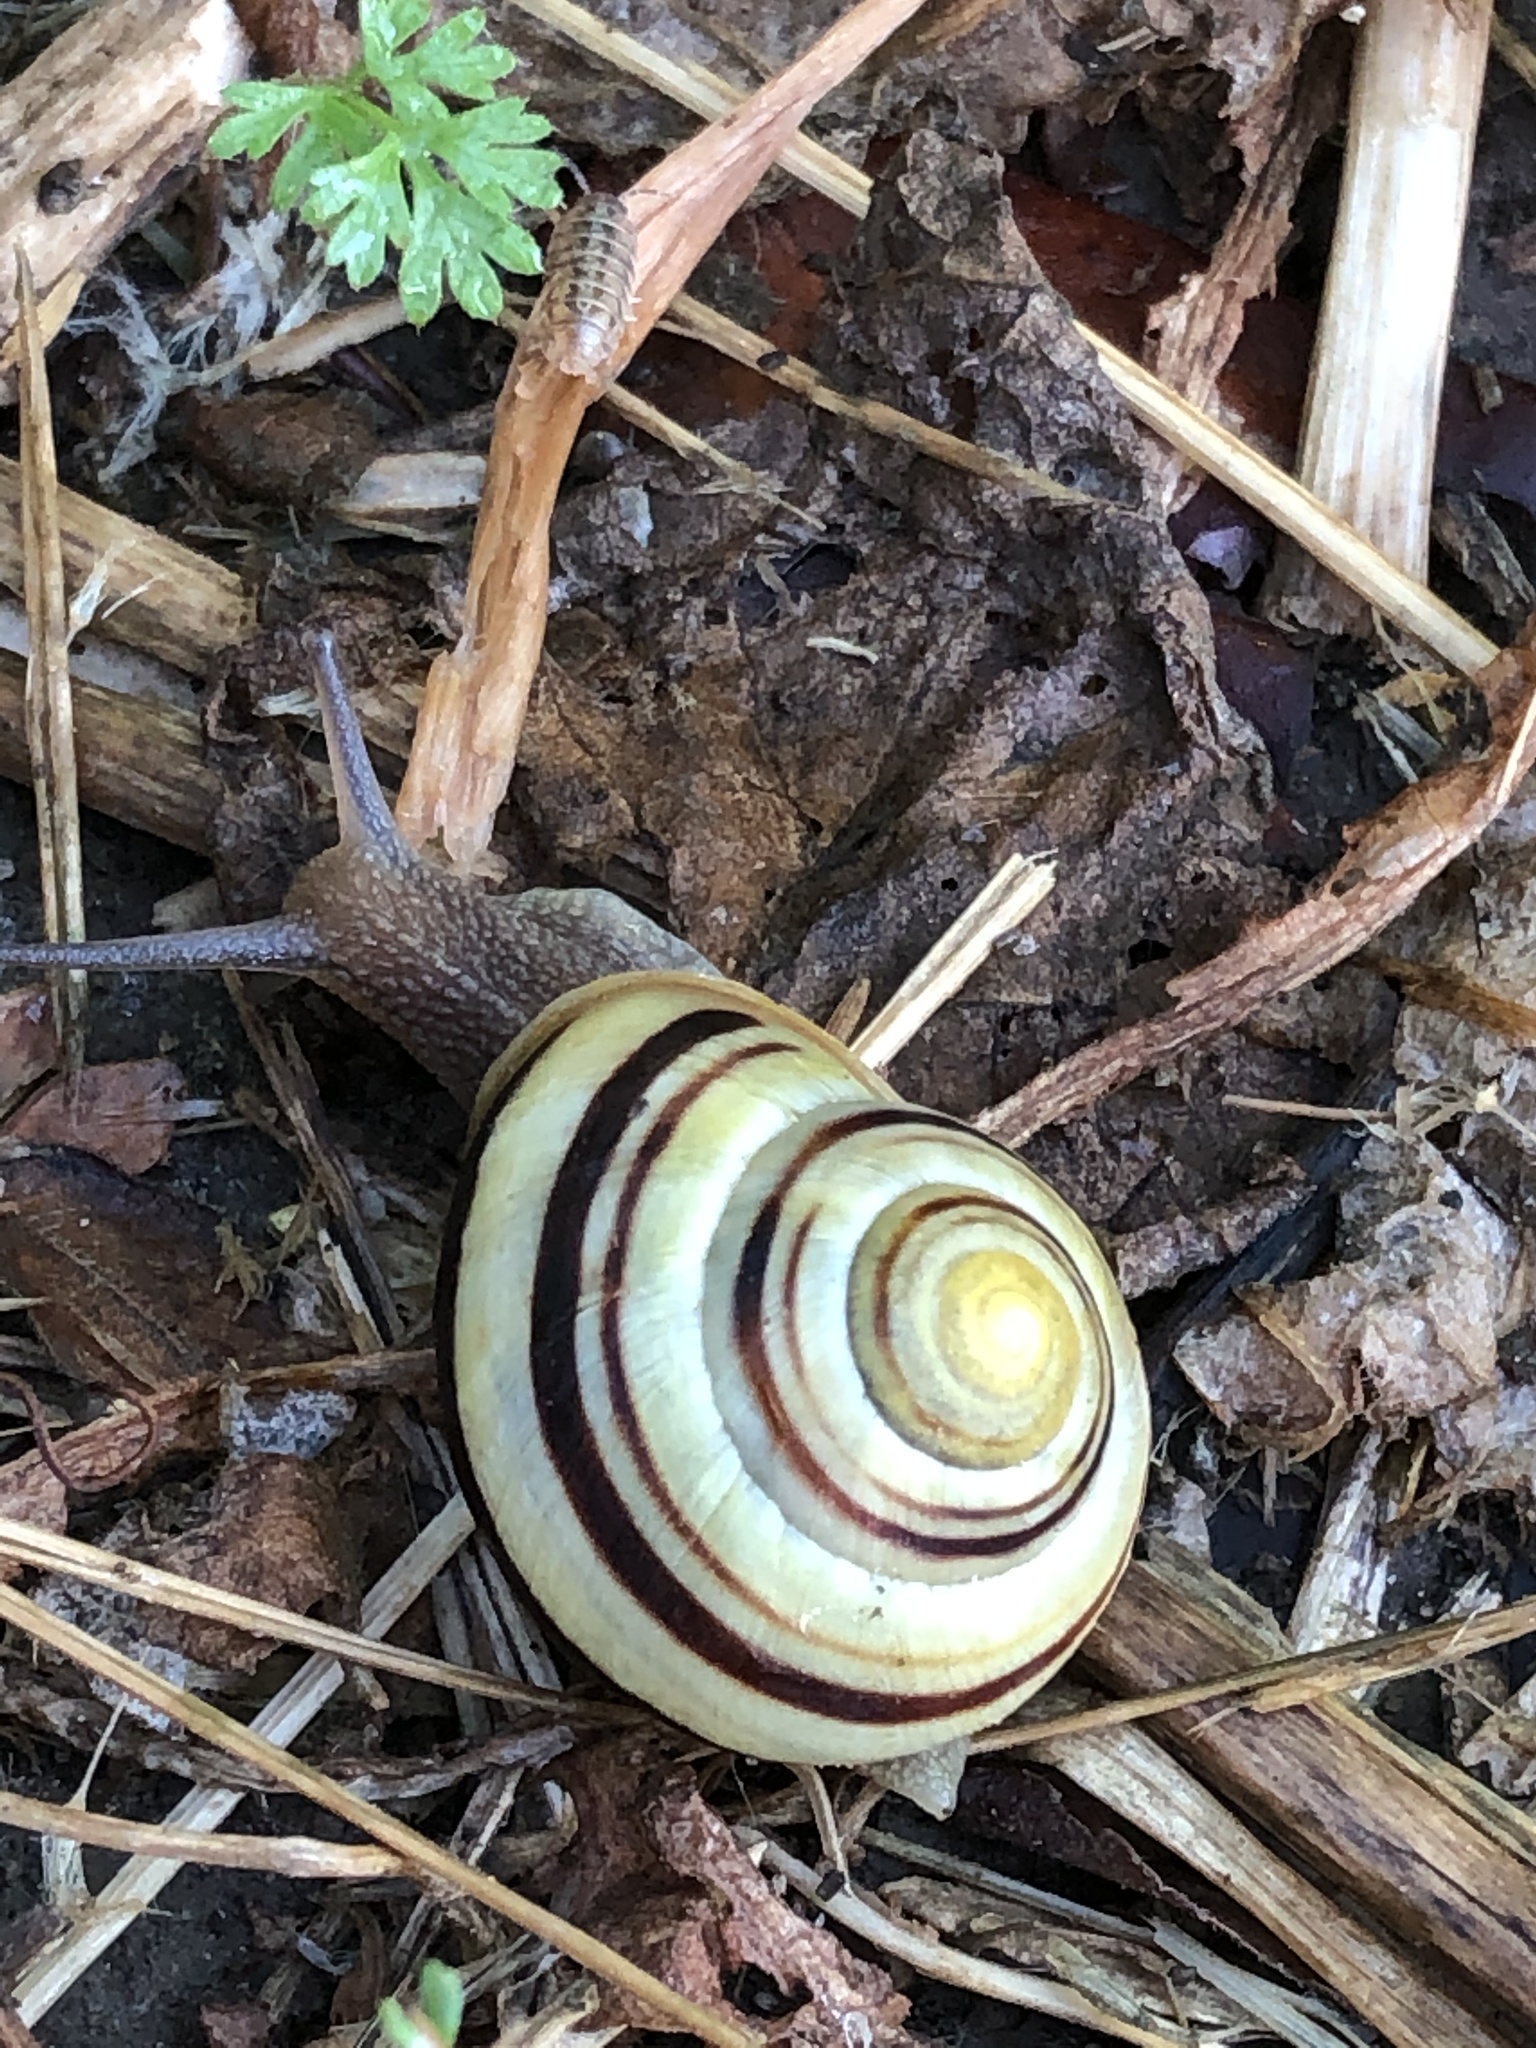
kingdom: Animalia
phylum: Mollusca
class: Gastropoda
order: Stylommatophora
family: Helicidae
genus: Cepaea
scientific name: Cepaea nemoralis
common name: Grovesnail
